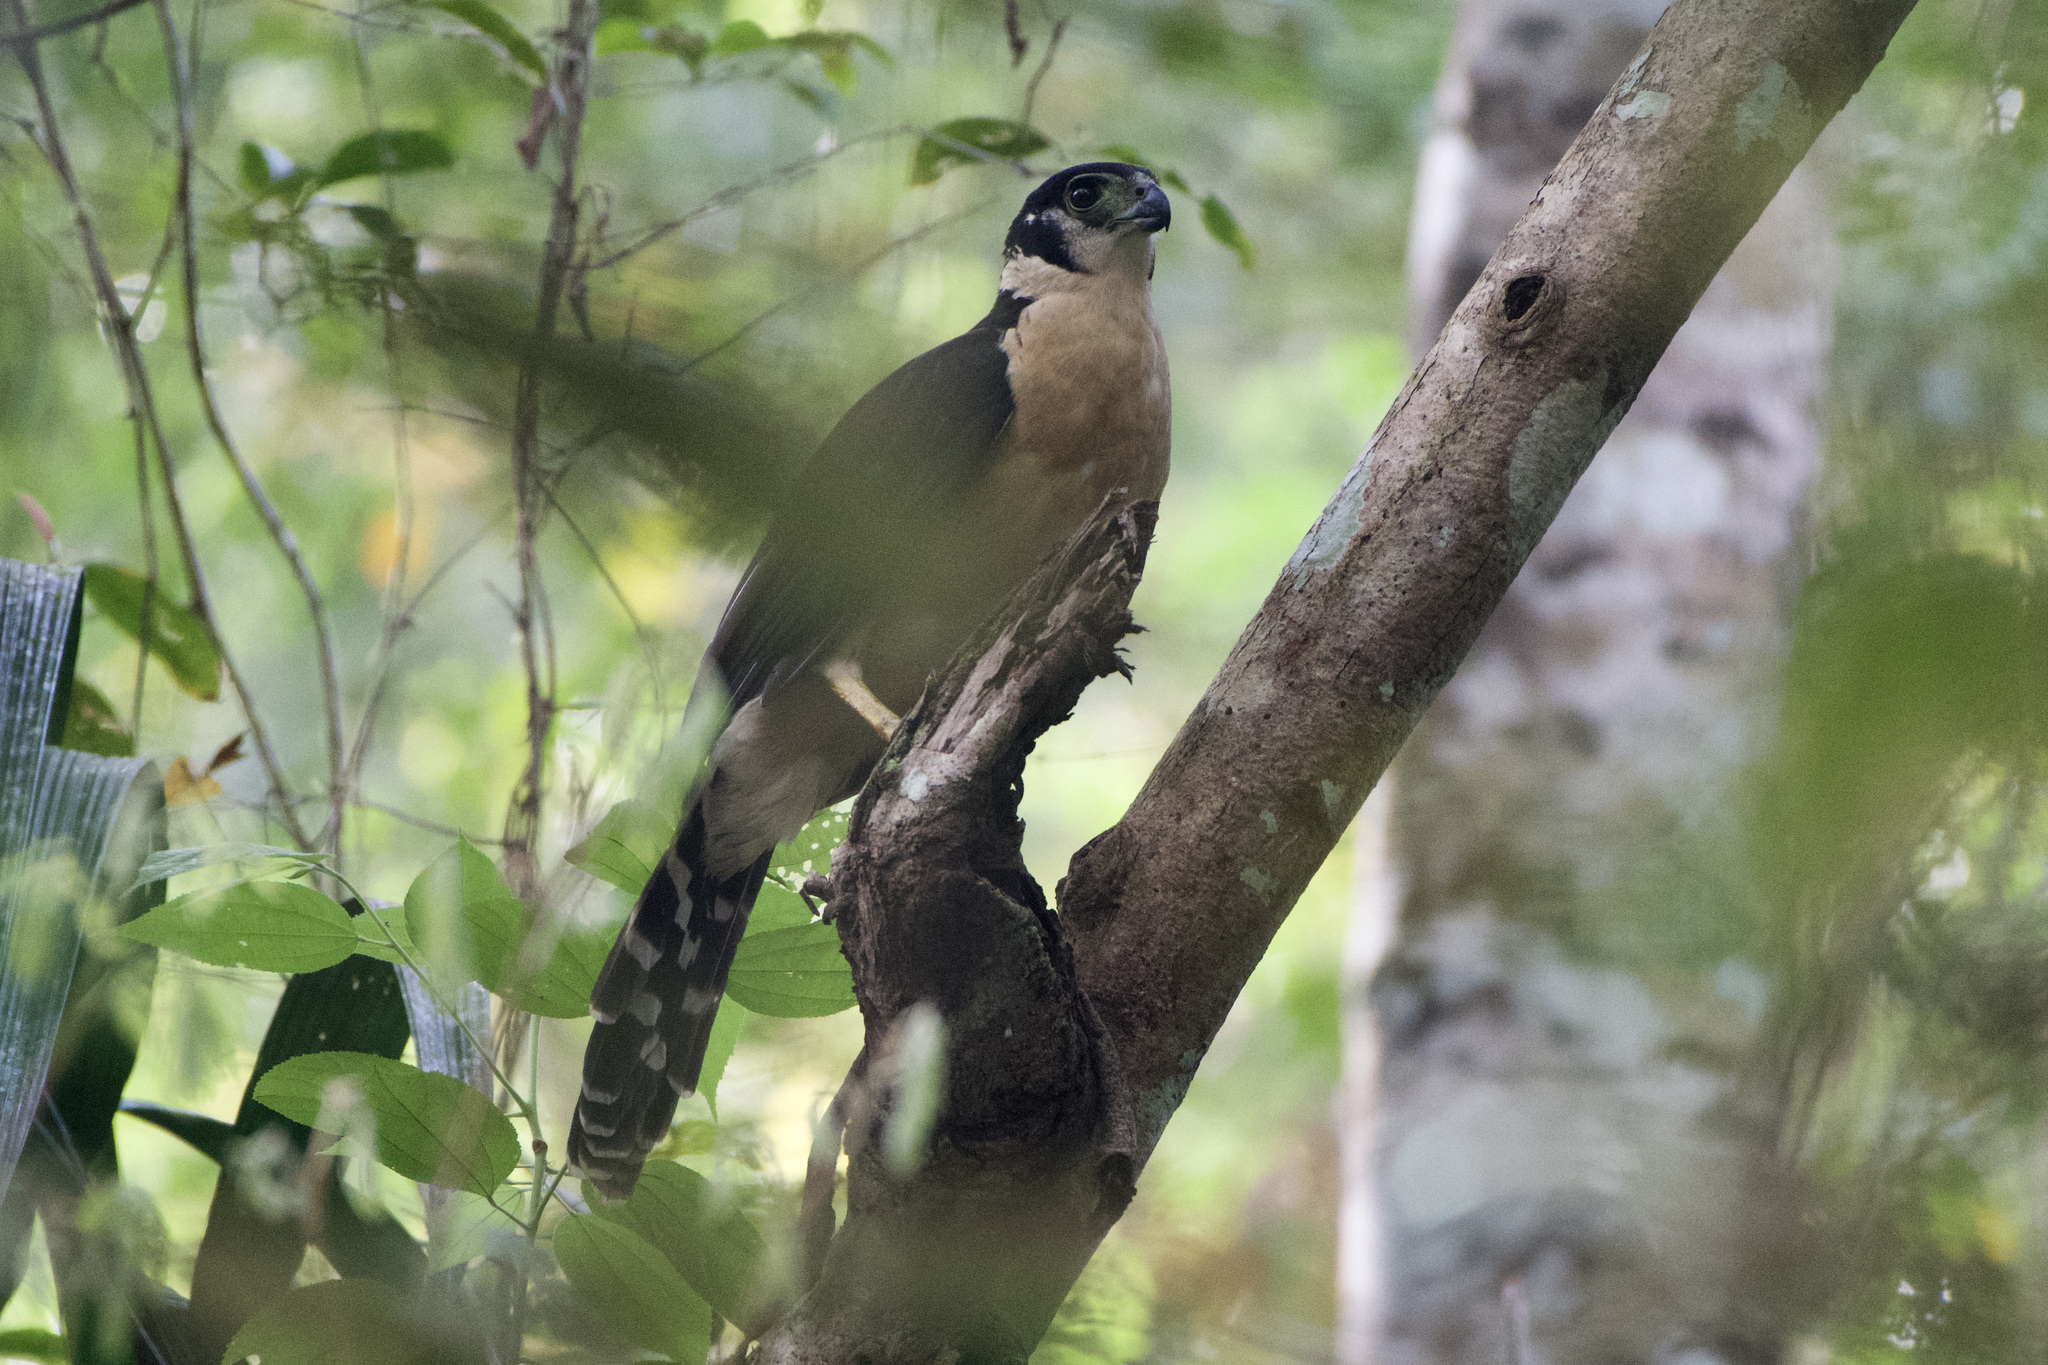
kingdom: Animalia
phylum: Chordata
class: Aves
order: Falconiformes
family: Falconidae
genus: Micrastur
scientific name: Micrastur semitorquatus
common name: Collared forest-falcon
